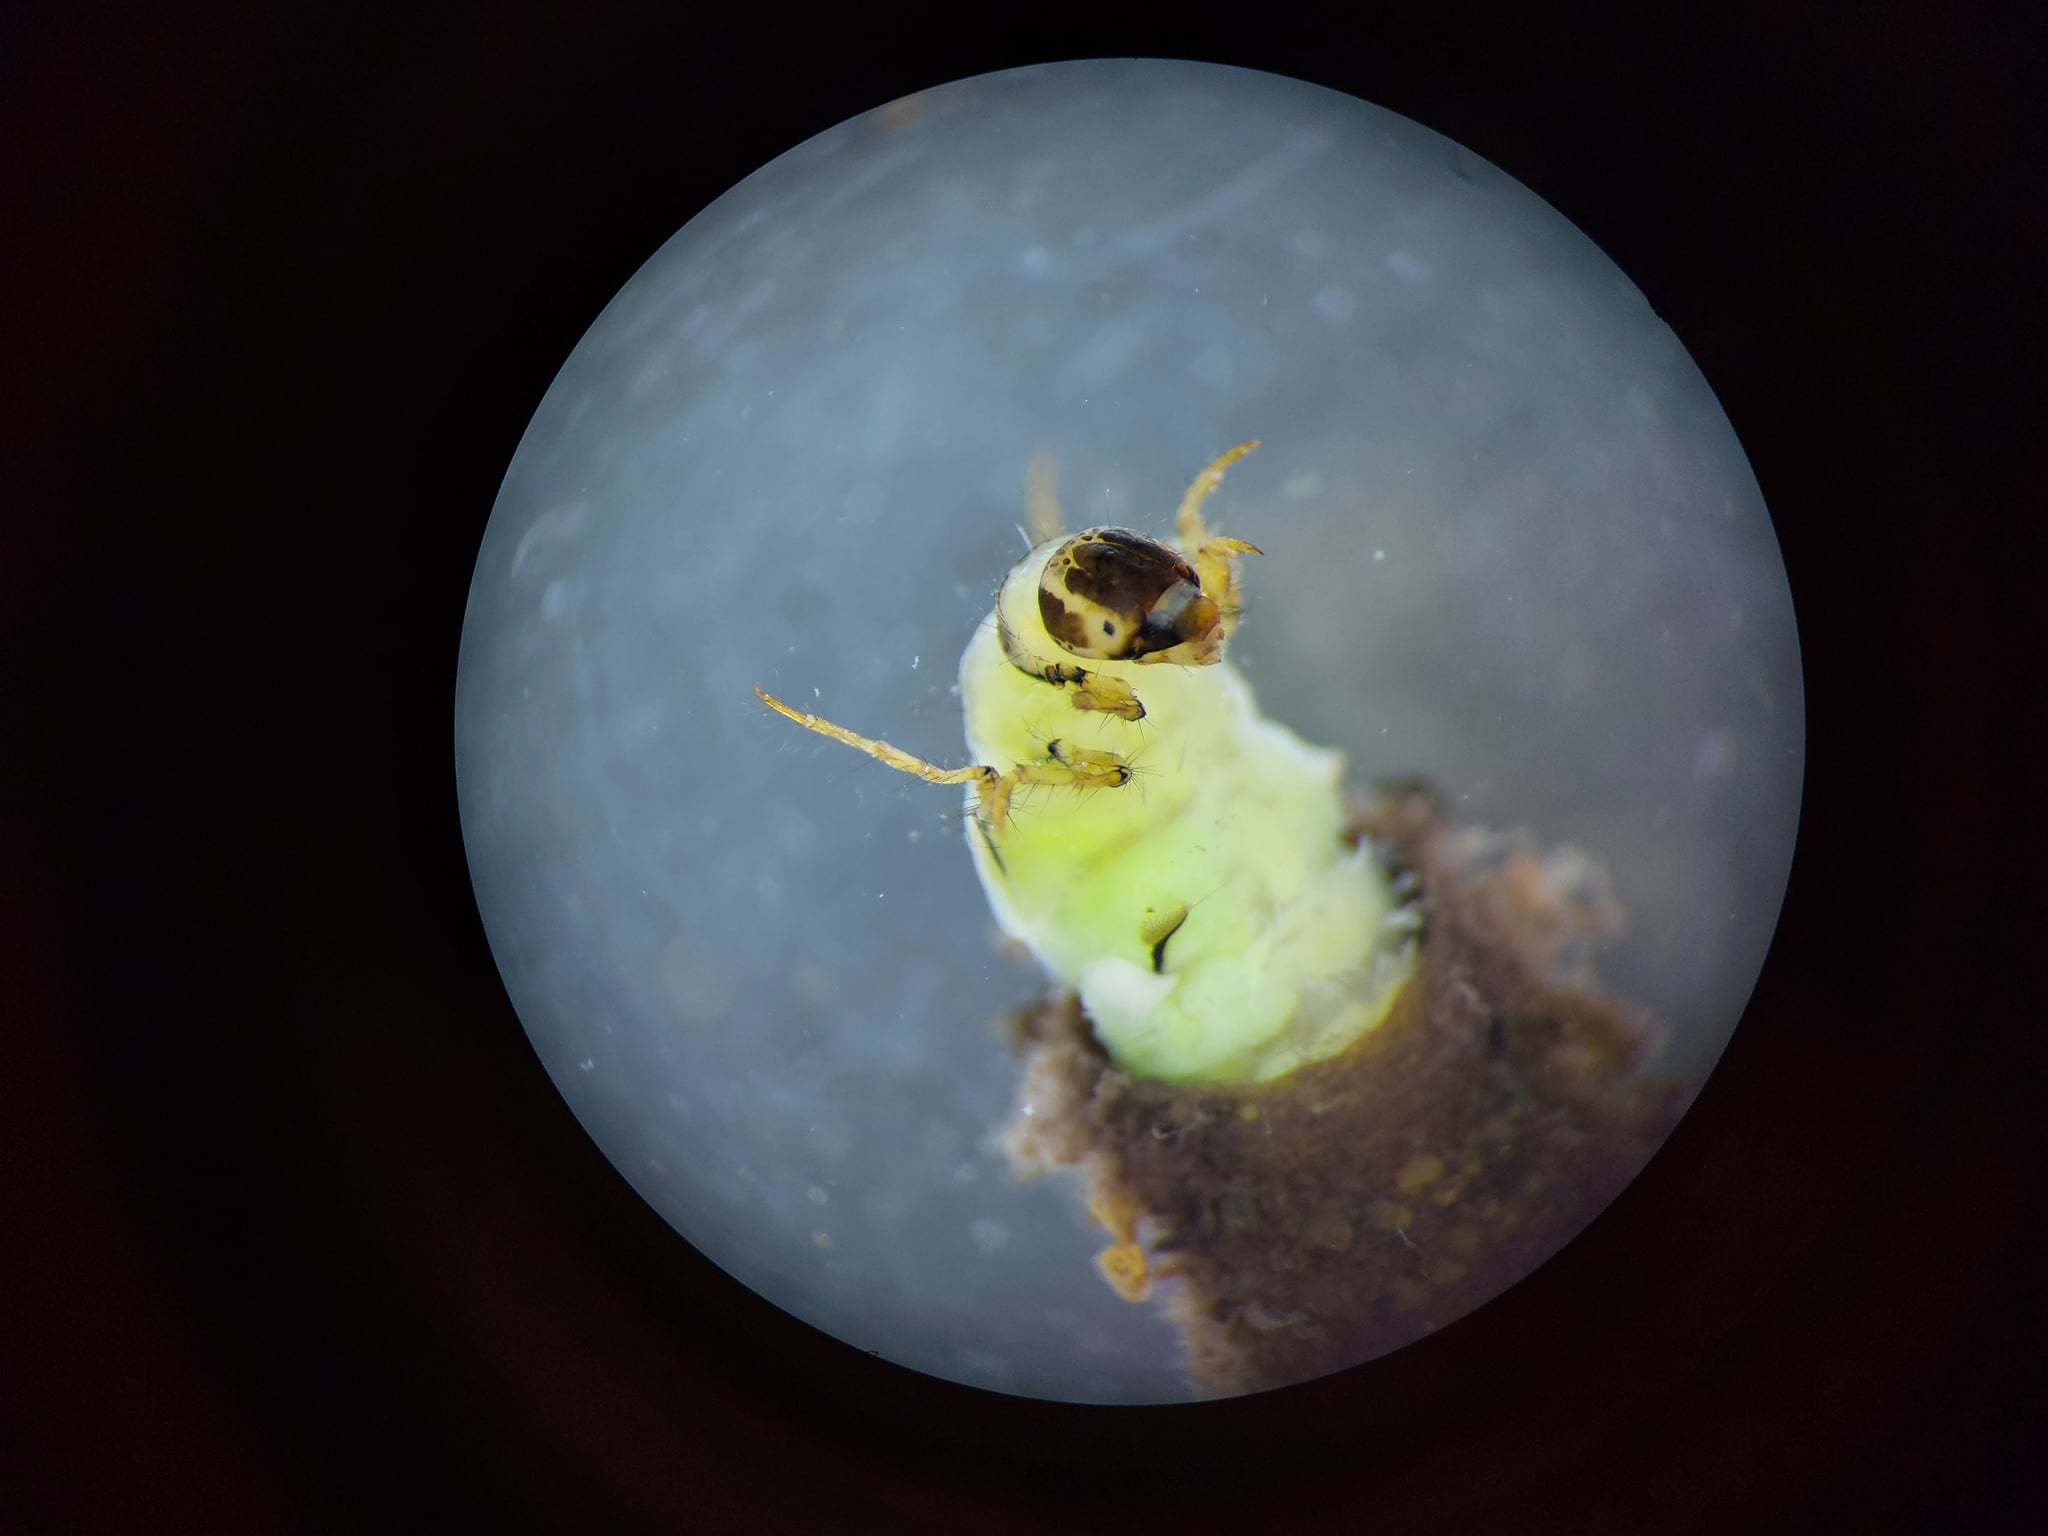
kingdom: Animalia
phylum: Arthropoda
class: Insecta
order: Trichoptera
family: Leptoceridae
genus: Ceraclea
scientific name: Ceraclea nigronervosa
